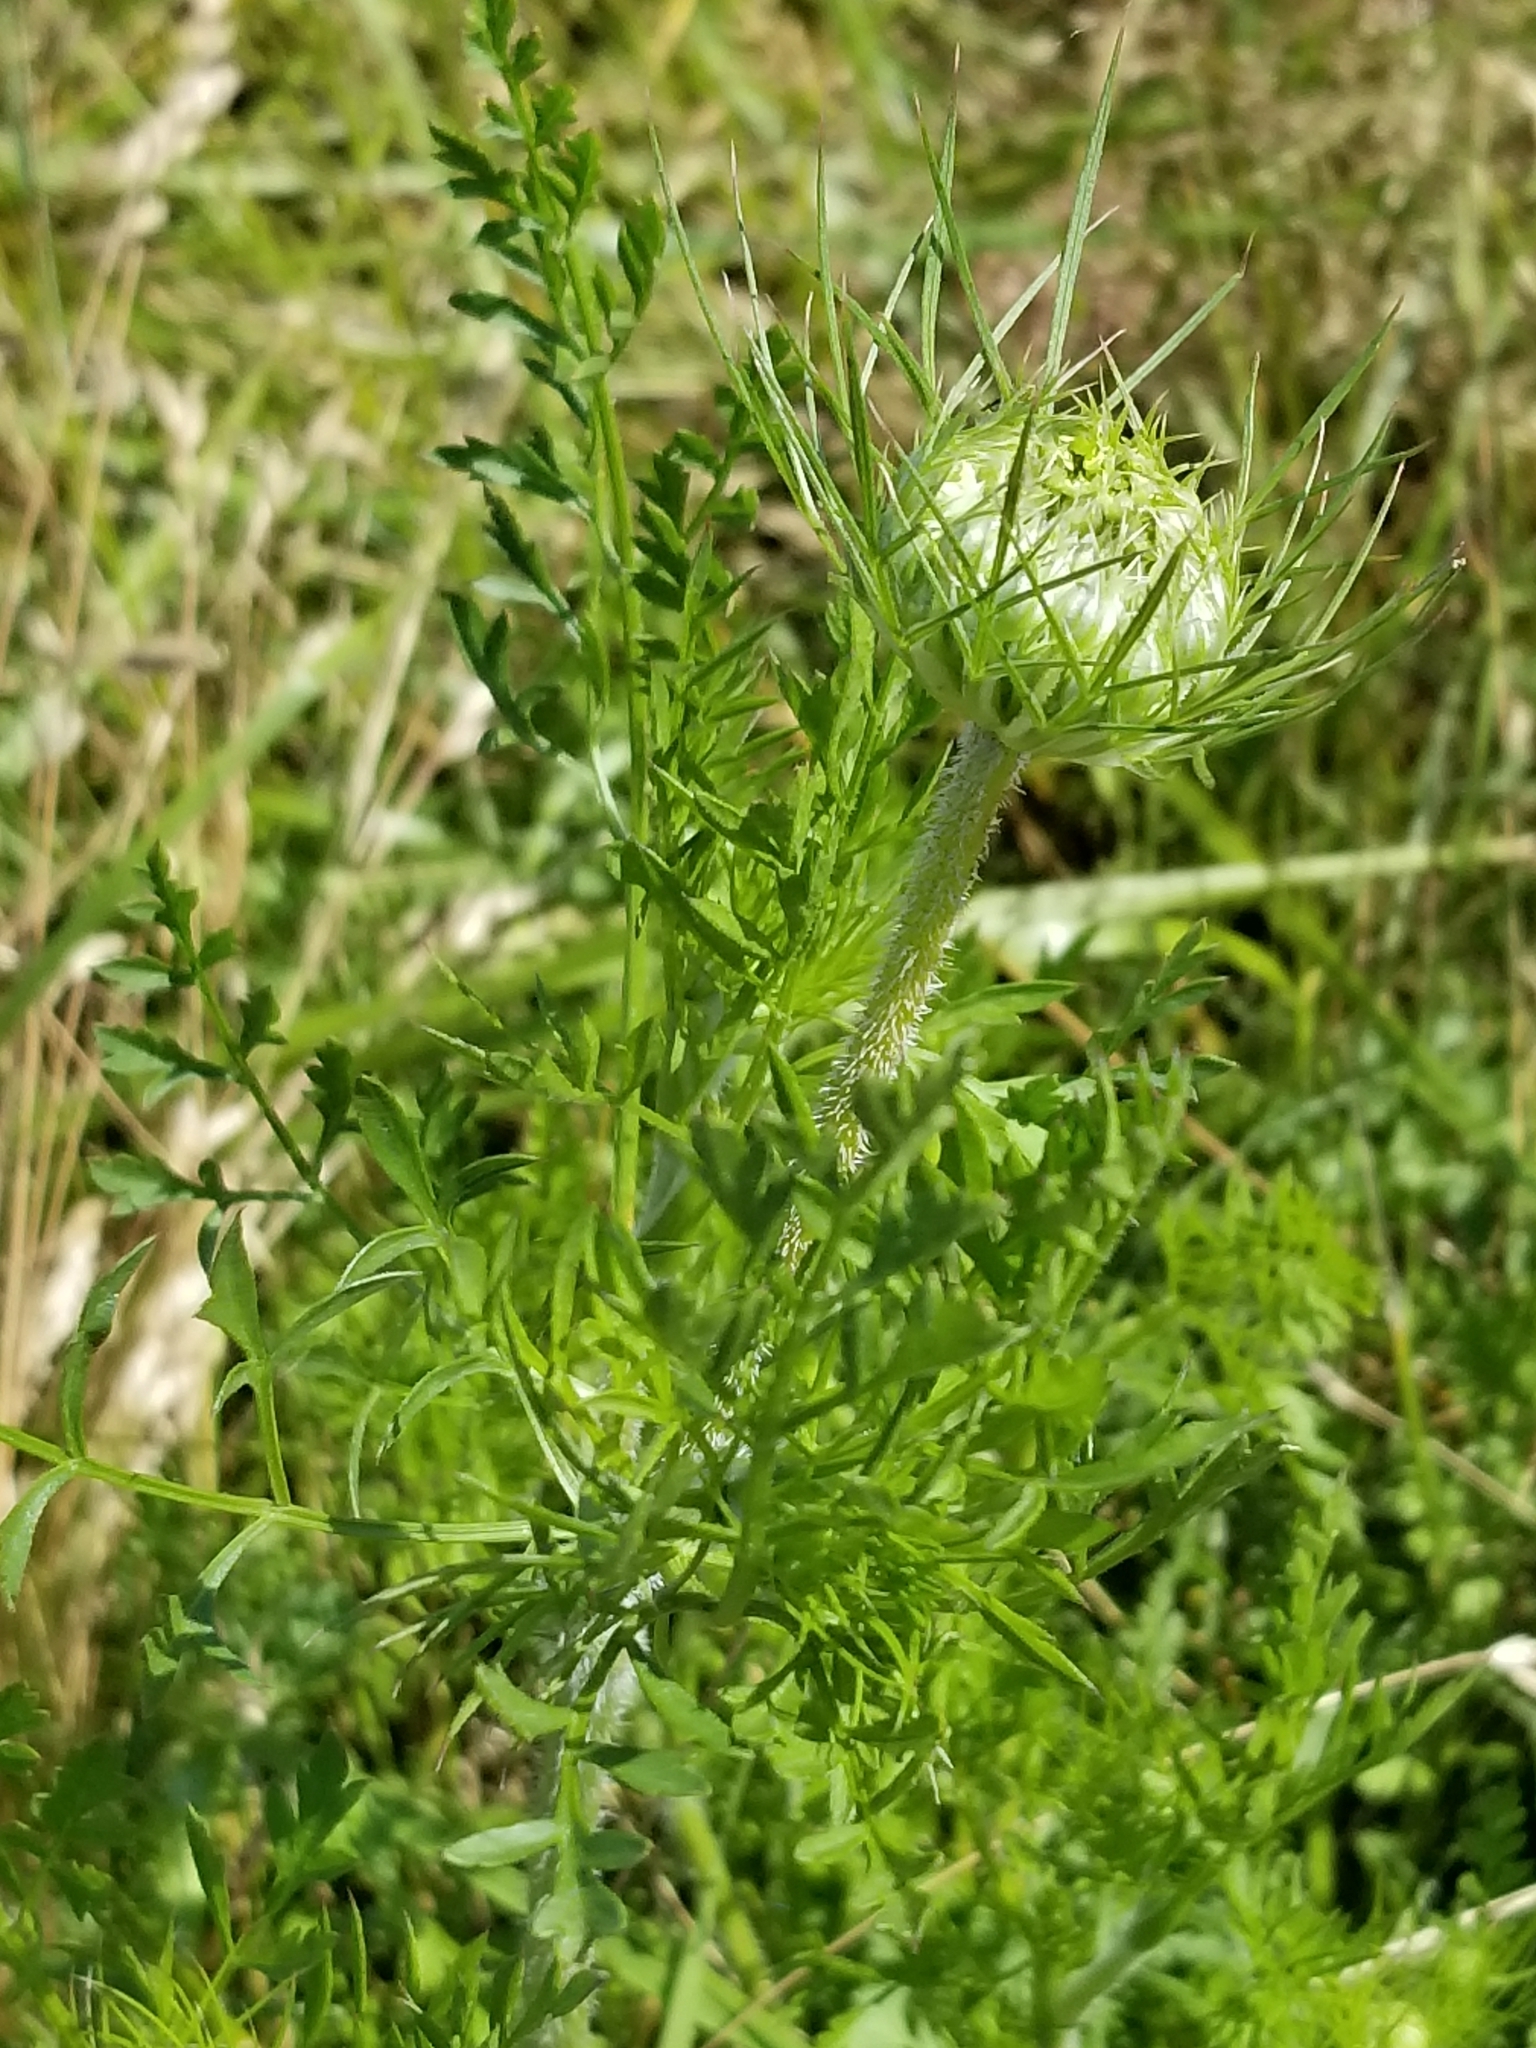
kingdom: Plantae
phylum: Tracheophyta
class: Magnoliopsida
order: Apiales
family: Apiaceae
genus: Daucus
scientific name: Daucus carota
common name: Wild carrot
